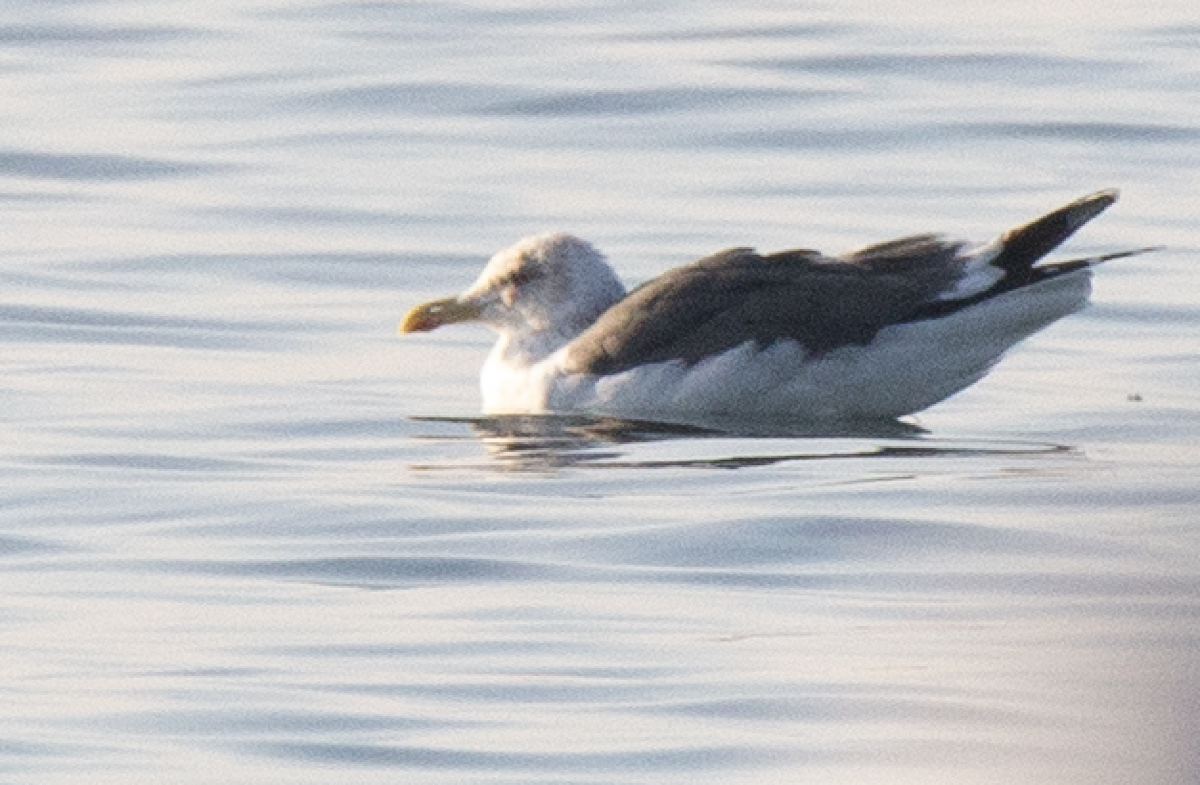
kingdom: Animalia
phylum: Chordata
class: Aves
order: Charadriiformes
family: Laridae
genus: Larus
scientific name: Larus fuscus
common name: Lesser black-backed gull
